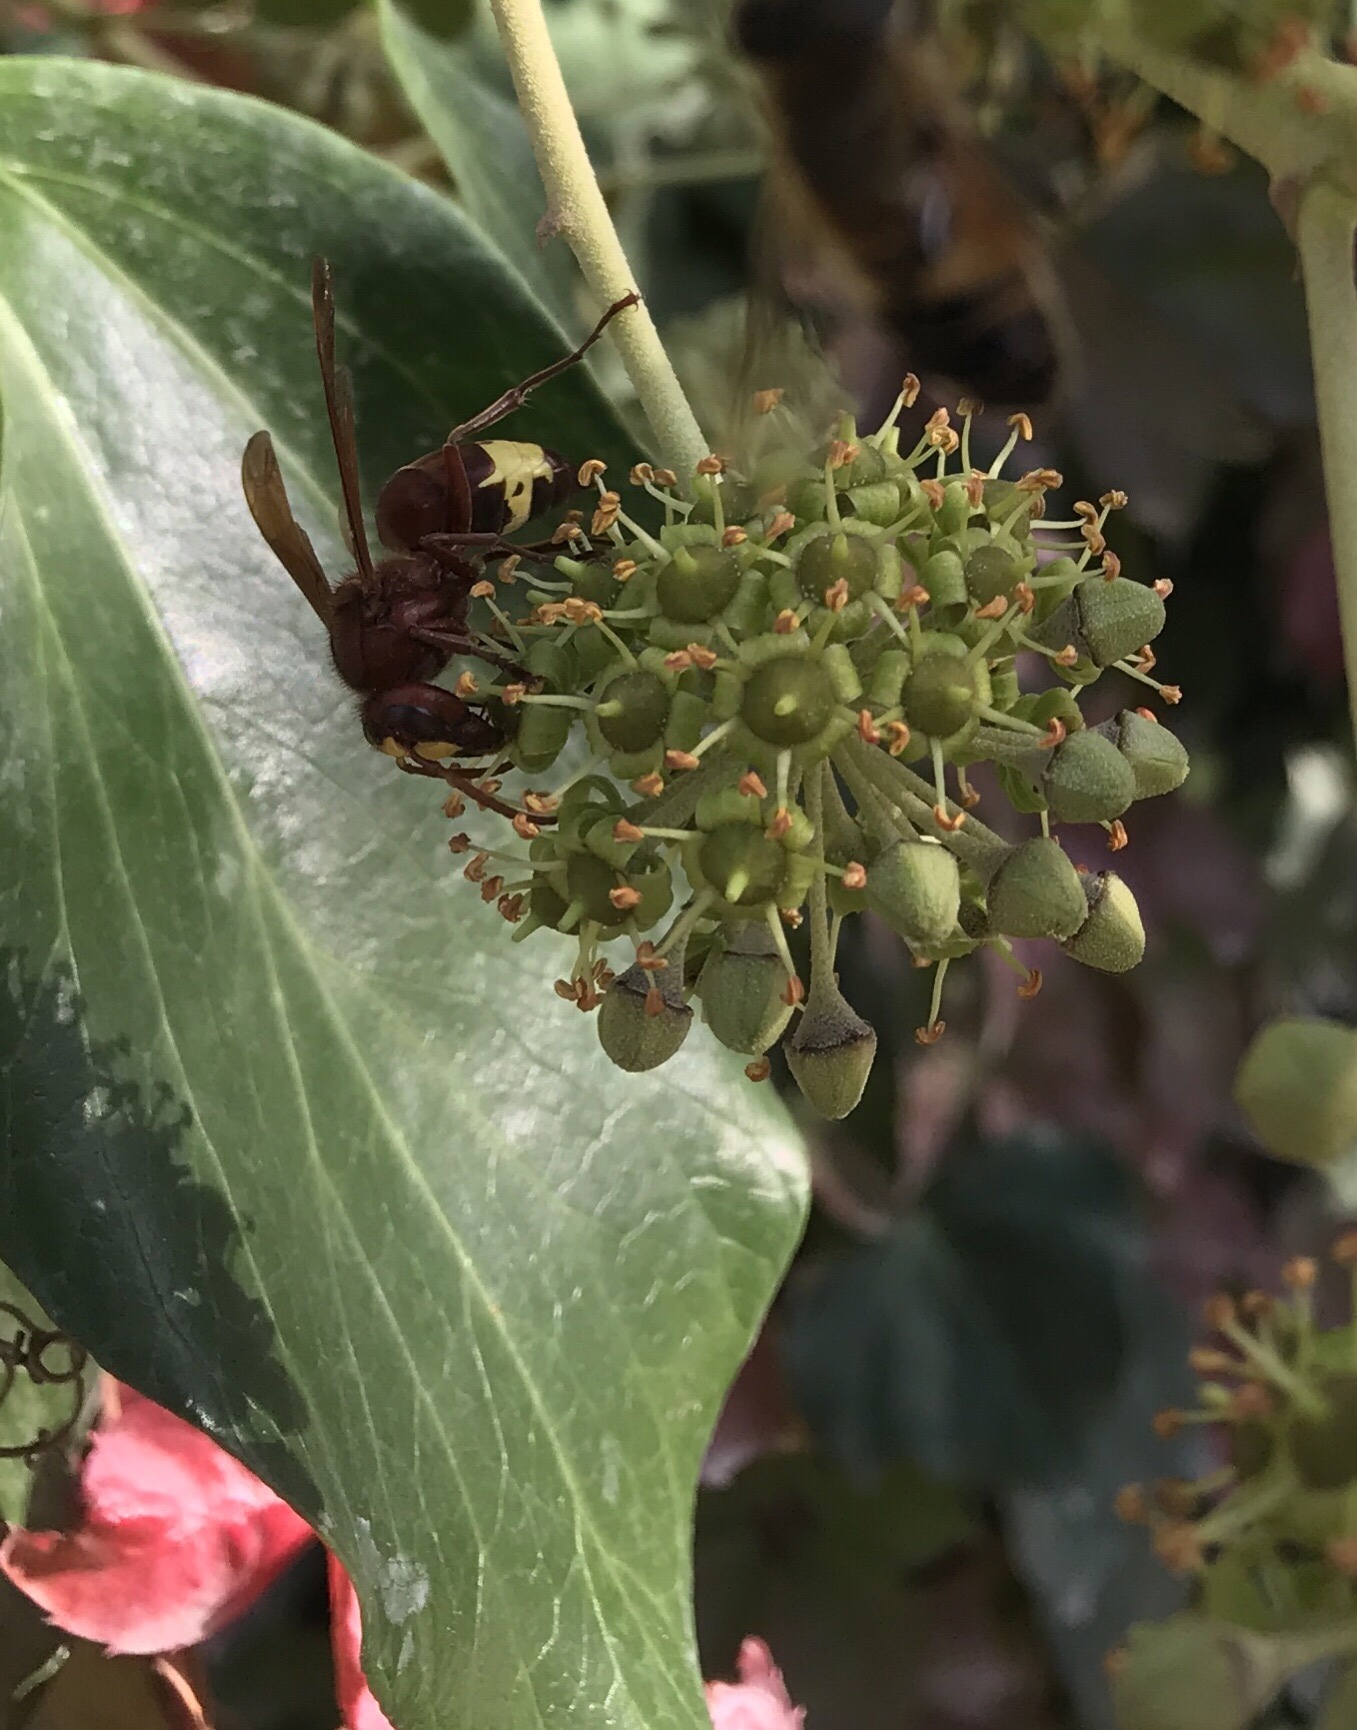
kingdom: Animalia
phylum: Arthropoda
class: Insecta
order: Hymenoptera
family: Vespidae
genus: Vespa
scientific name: Vespa orientalis
